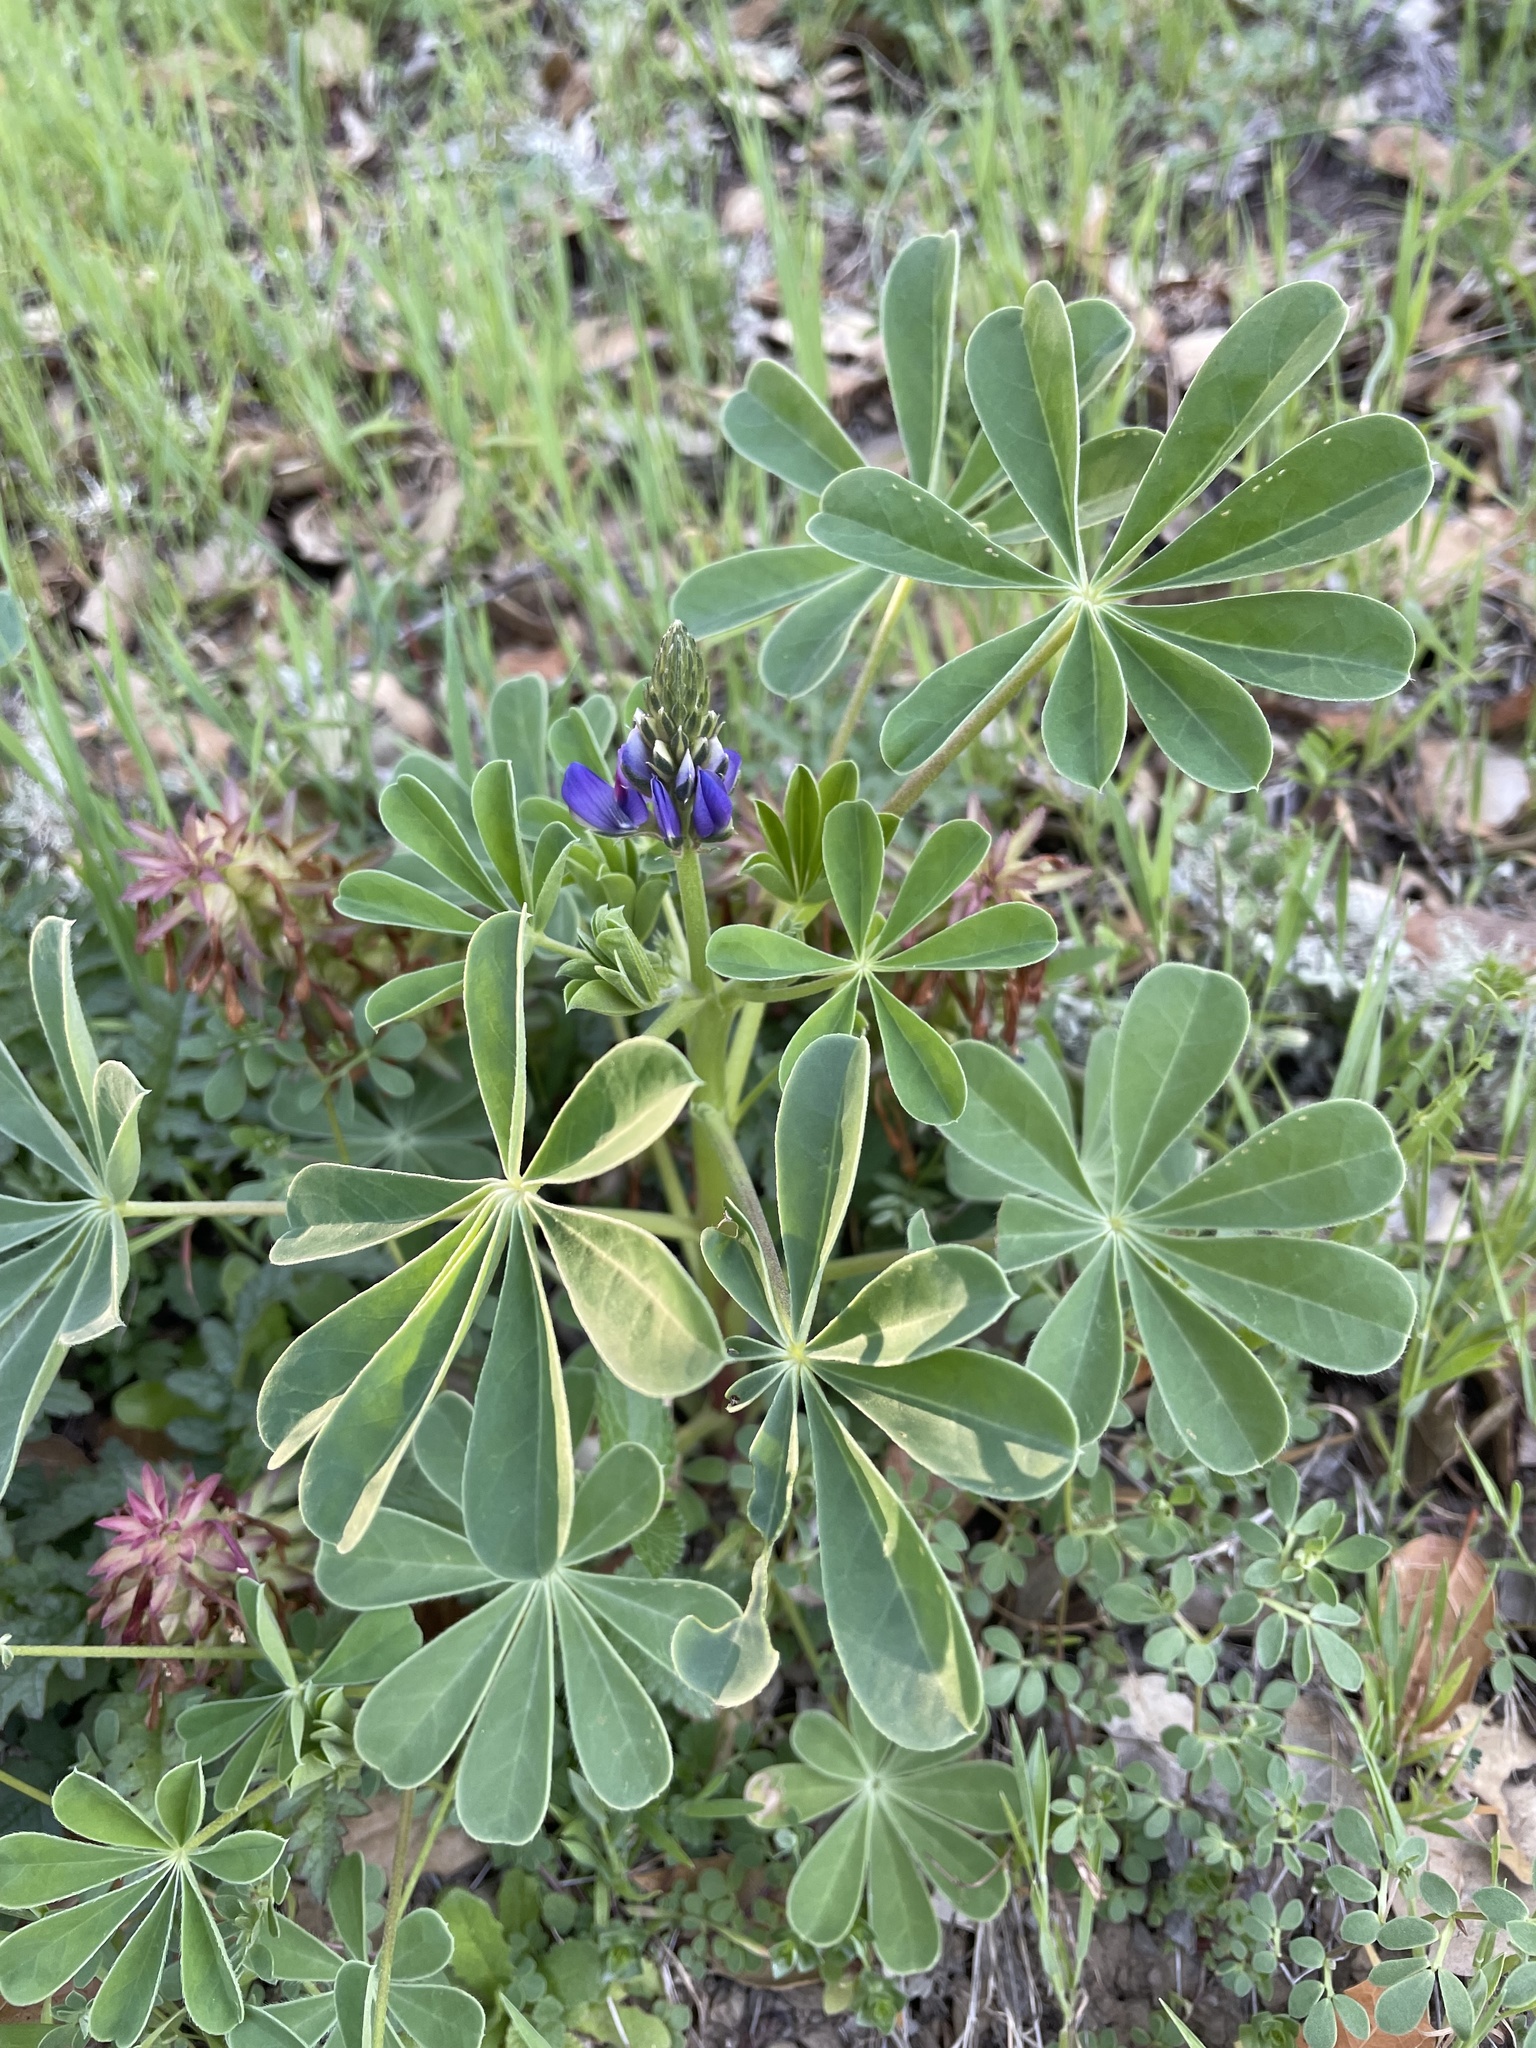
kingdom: Plantae
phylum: Tracheophyta
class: Magnoliopsida
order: Fabales
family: Fabaceae
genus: Lupinus
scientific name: Lupinus succulentus
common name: Arroyo lupine
